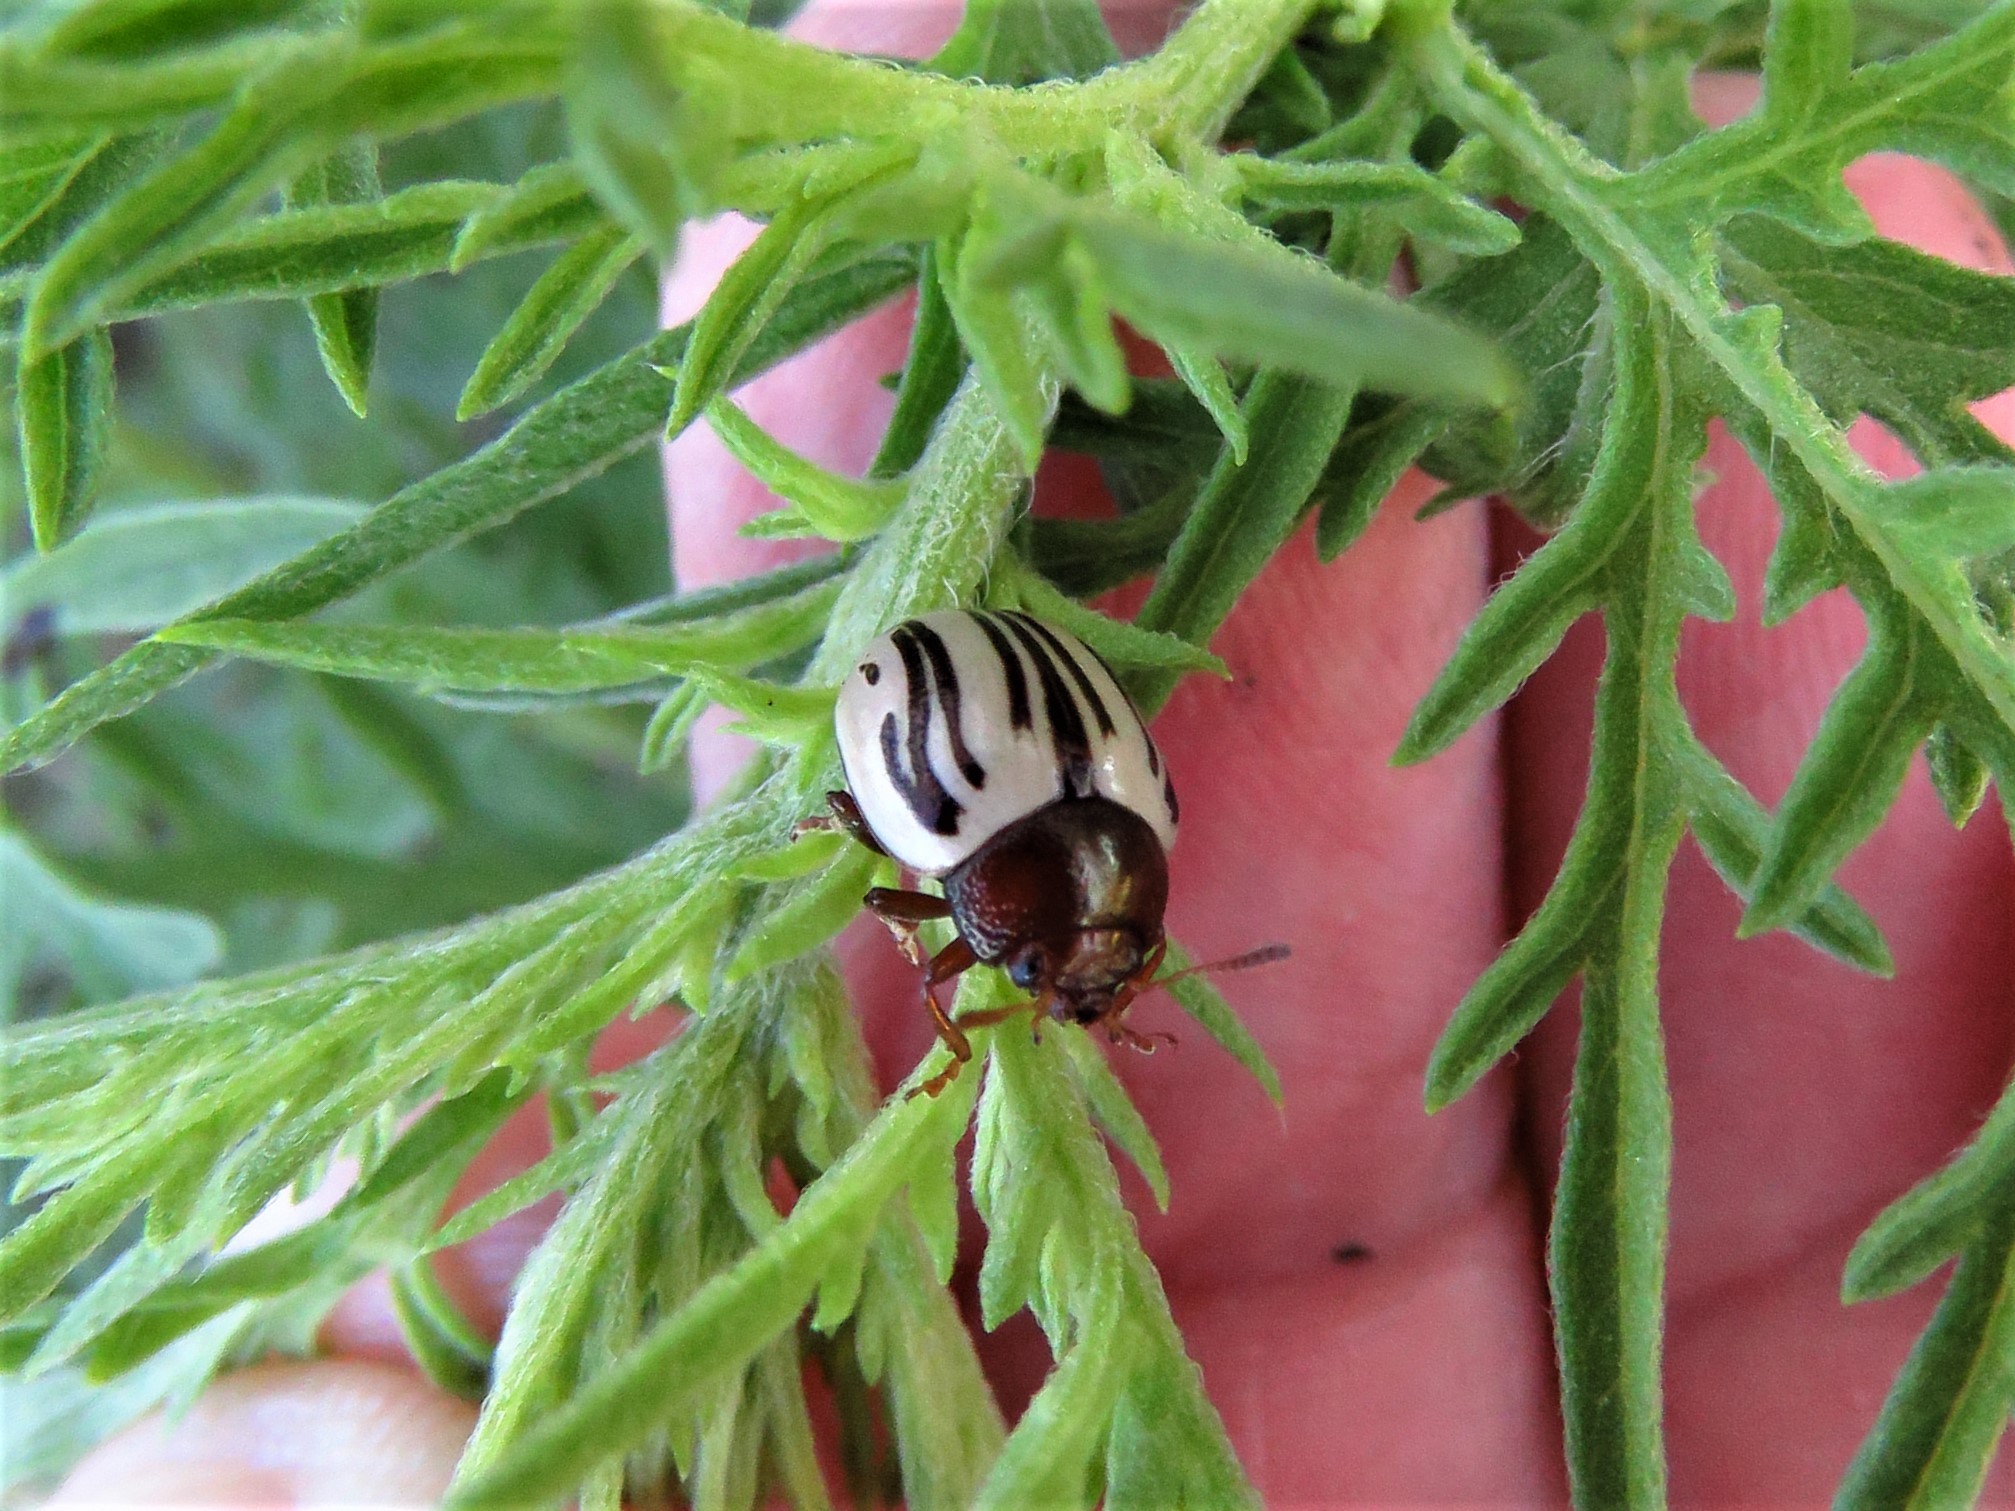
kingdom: Animalia
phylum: Arthropoda
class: Insecta
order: Coleoptera
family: Chrysomelidae
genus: Calligrapha
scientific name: Calligrapha
